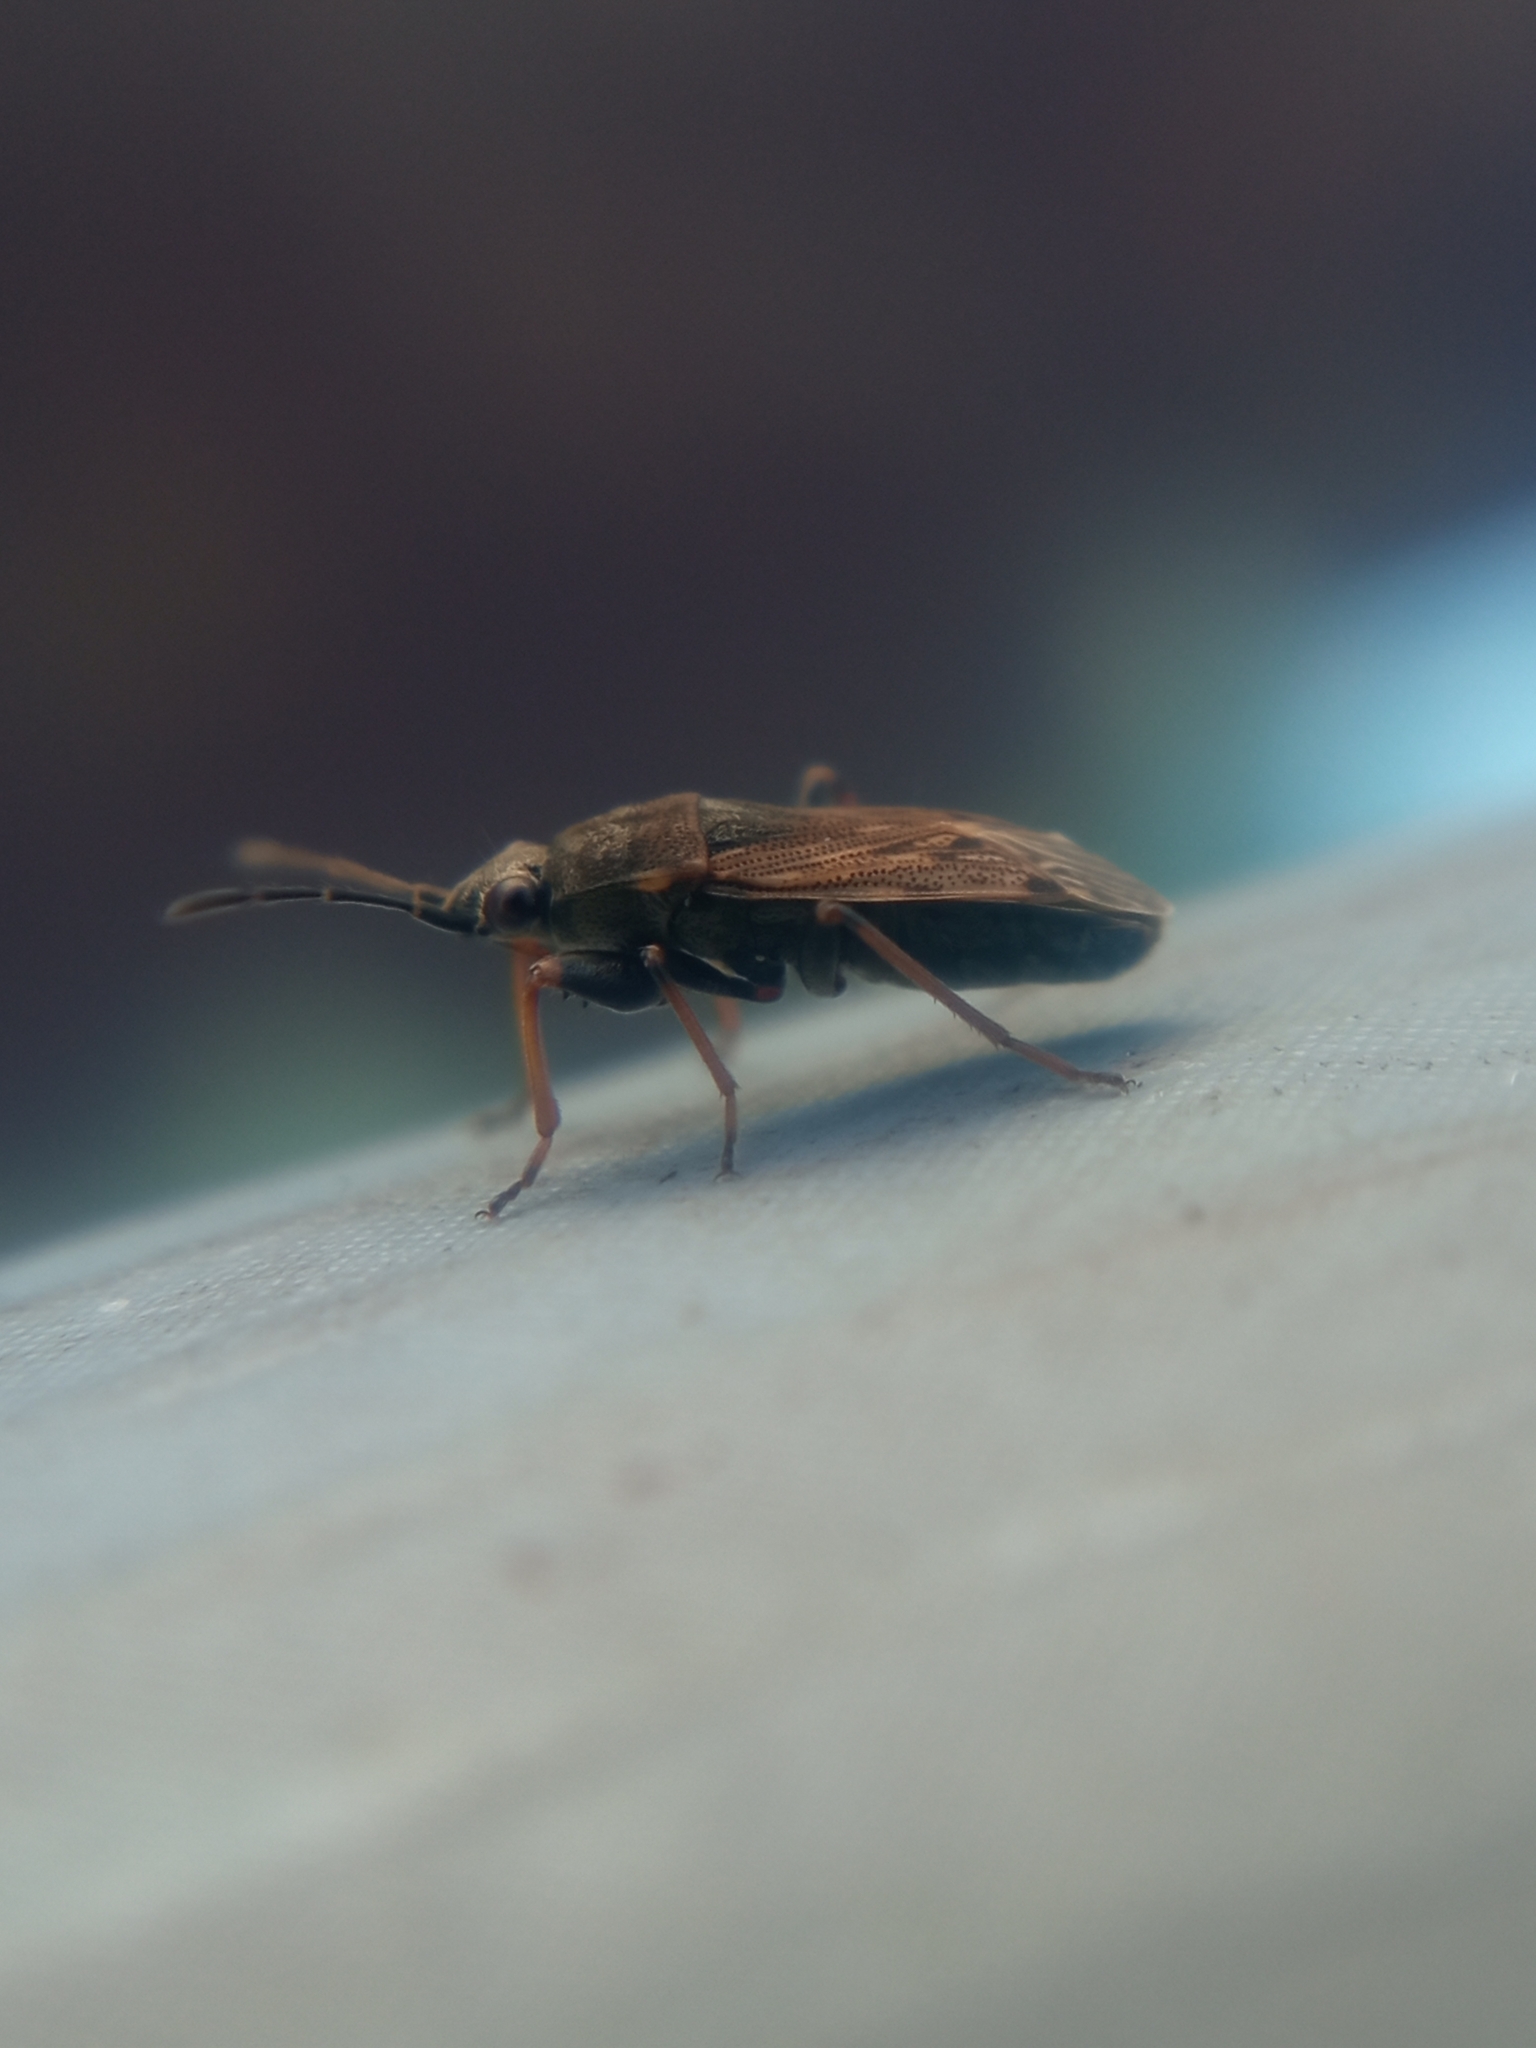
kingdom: Animalia
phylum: Arthropoda
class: Insecta
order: Hemiptera
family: Rhyparochromidae
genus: Peritrechus
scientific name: Peritrechus gracilicornis
